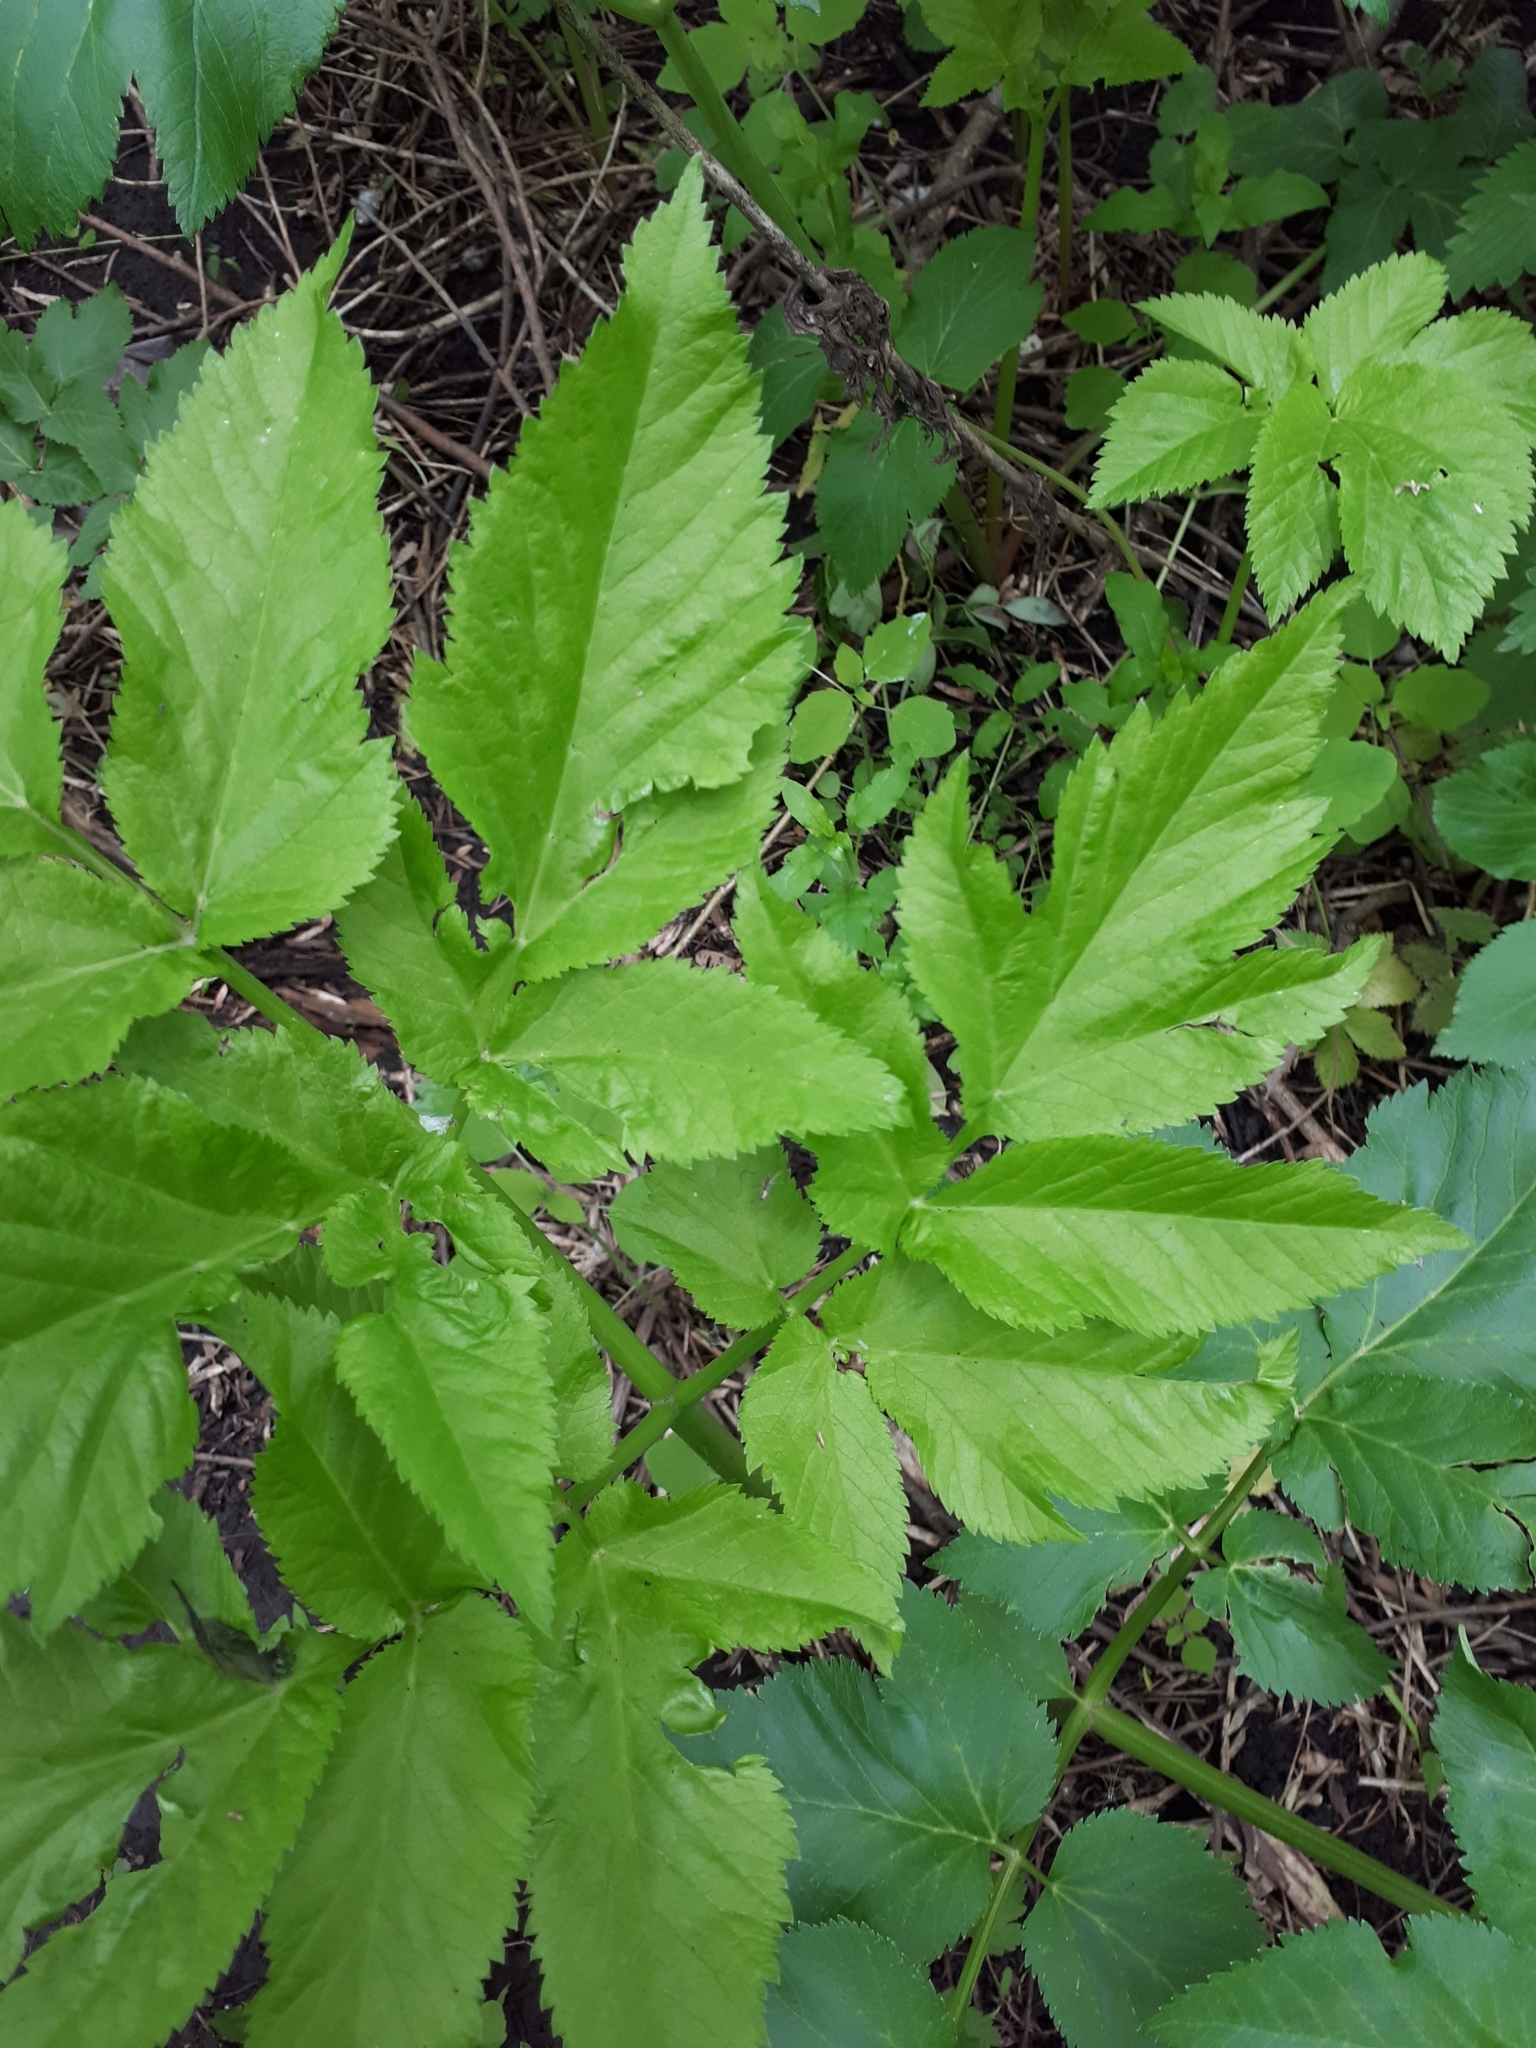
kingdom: Plantae
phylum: Tracheophyta
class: Magnoliopsida
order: Apiales
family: Apiaceae
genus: Angelica
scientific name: Angelica archangelica
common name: Garden angelica
